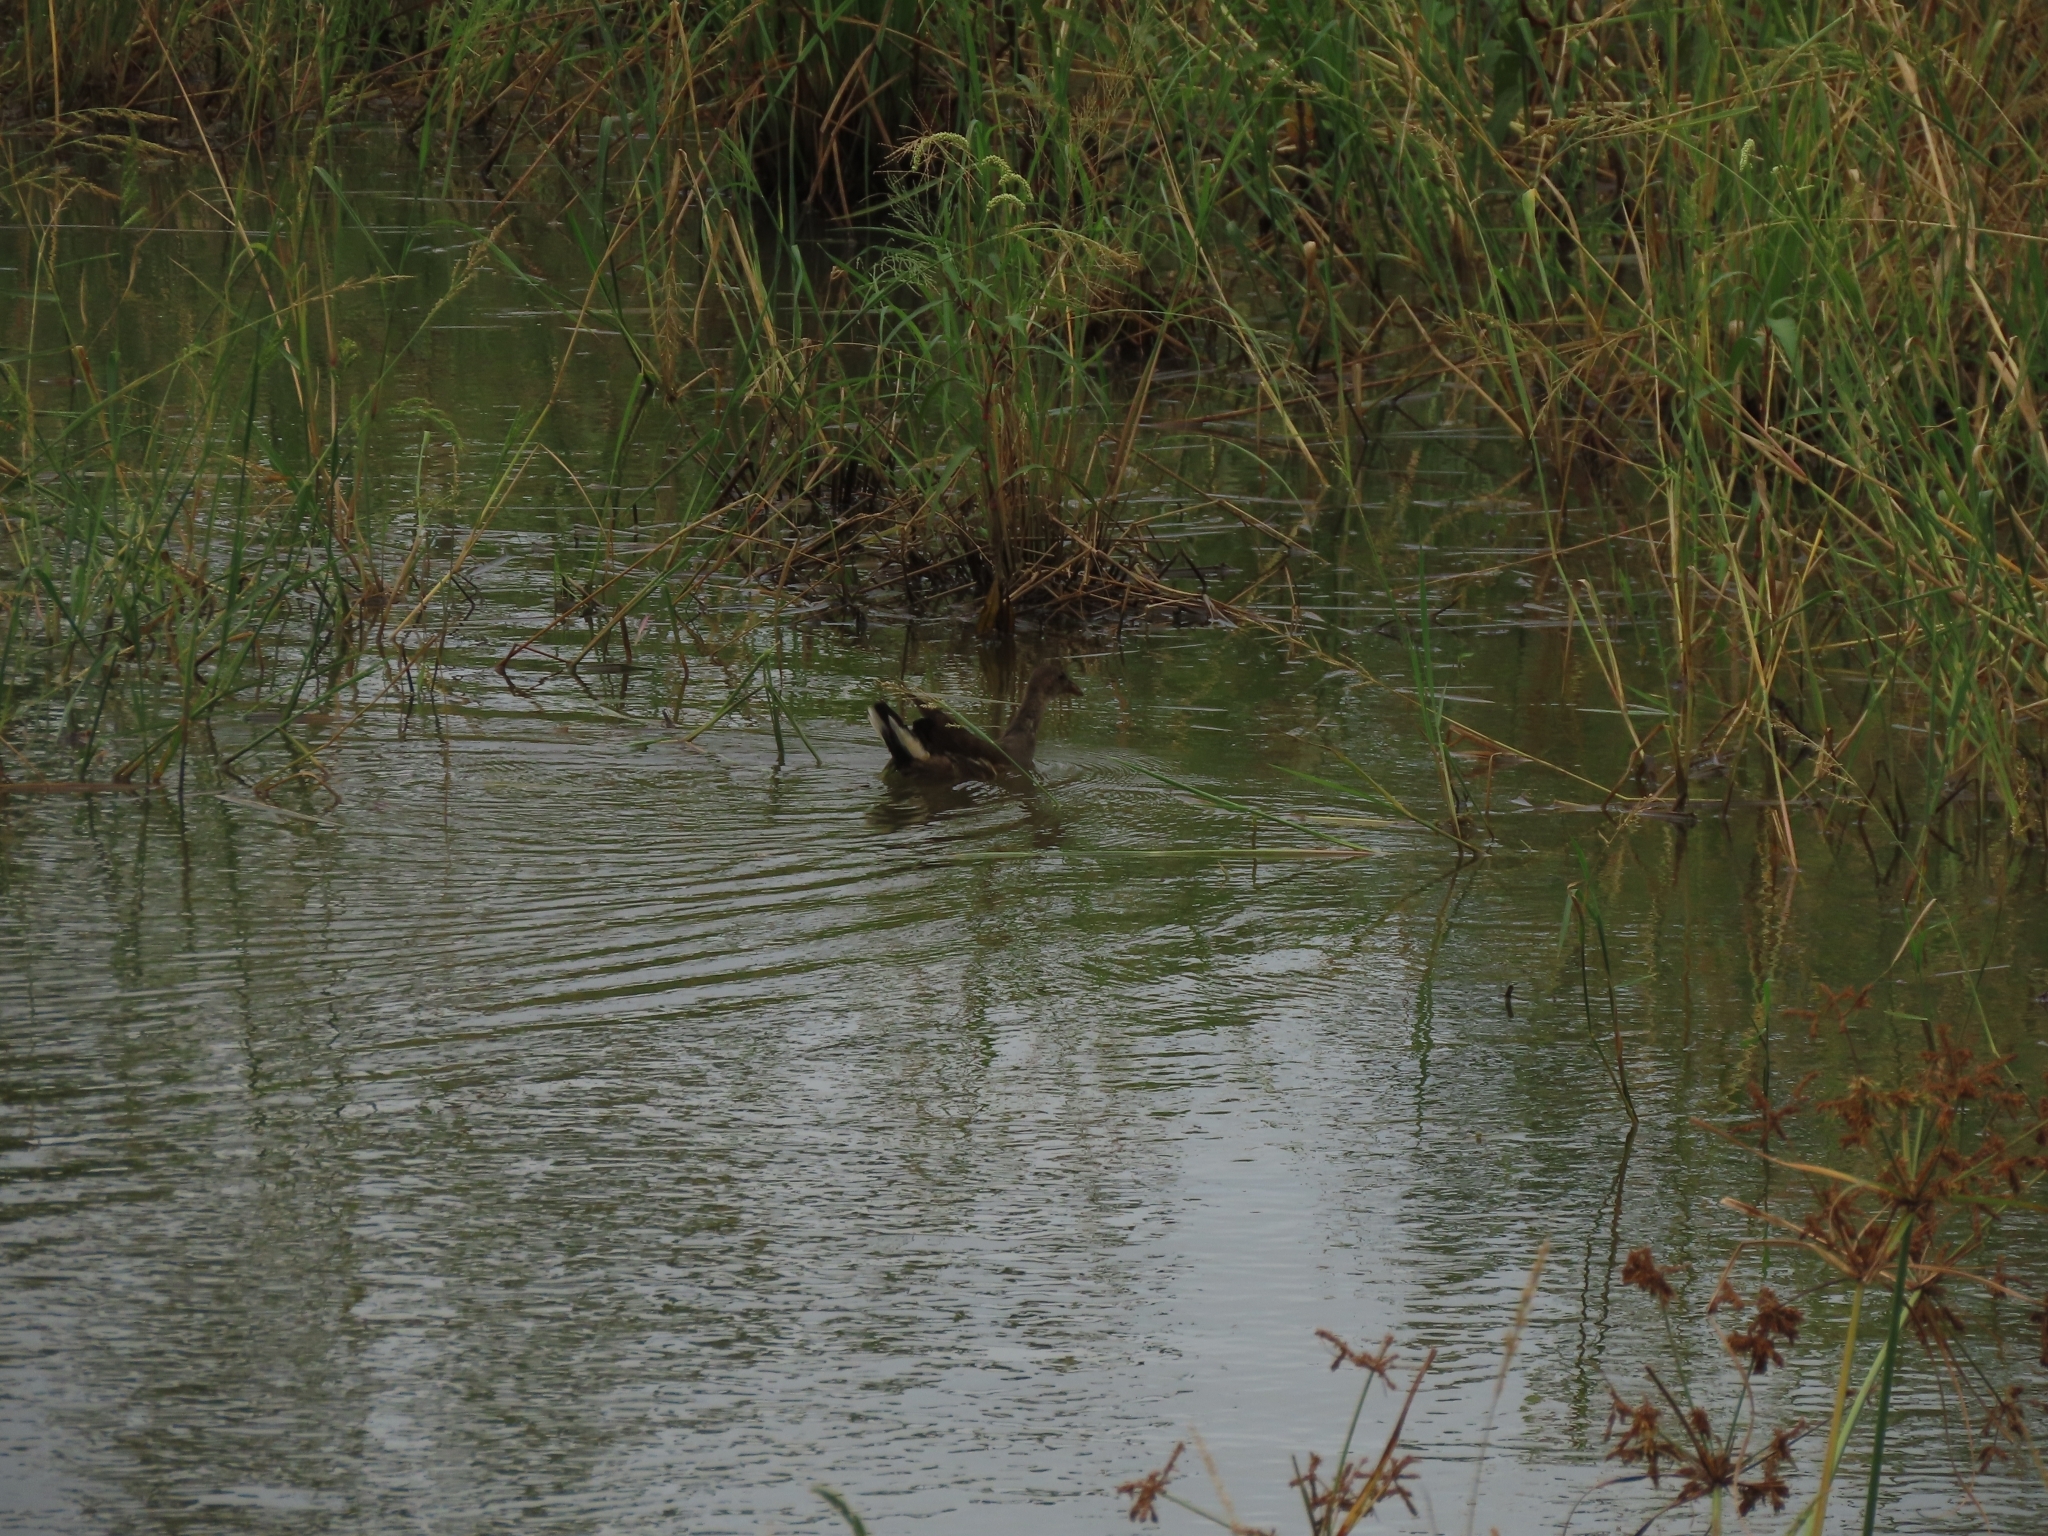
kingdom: Animalia
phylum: Chordata
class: Aves
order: Gruiformes
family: Rallidae
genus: Gallinula
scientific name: Gallinula chloropus
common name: Common moorhen
